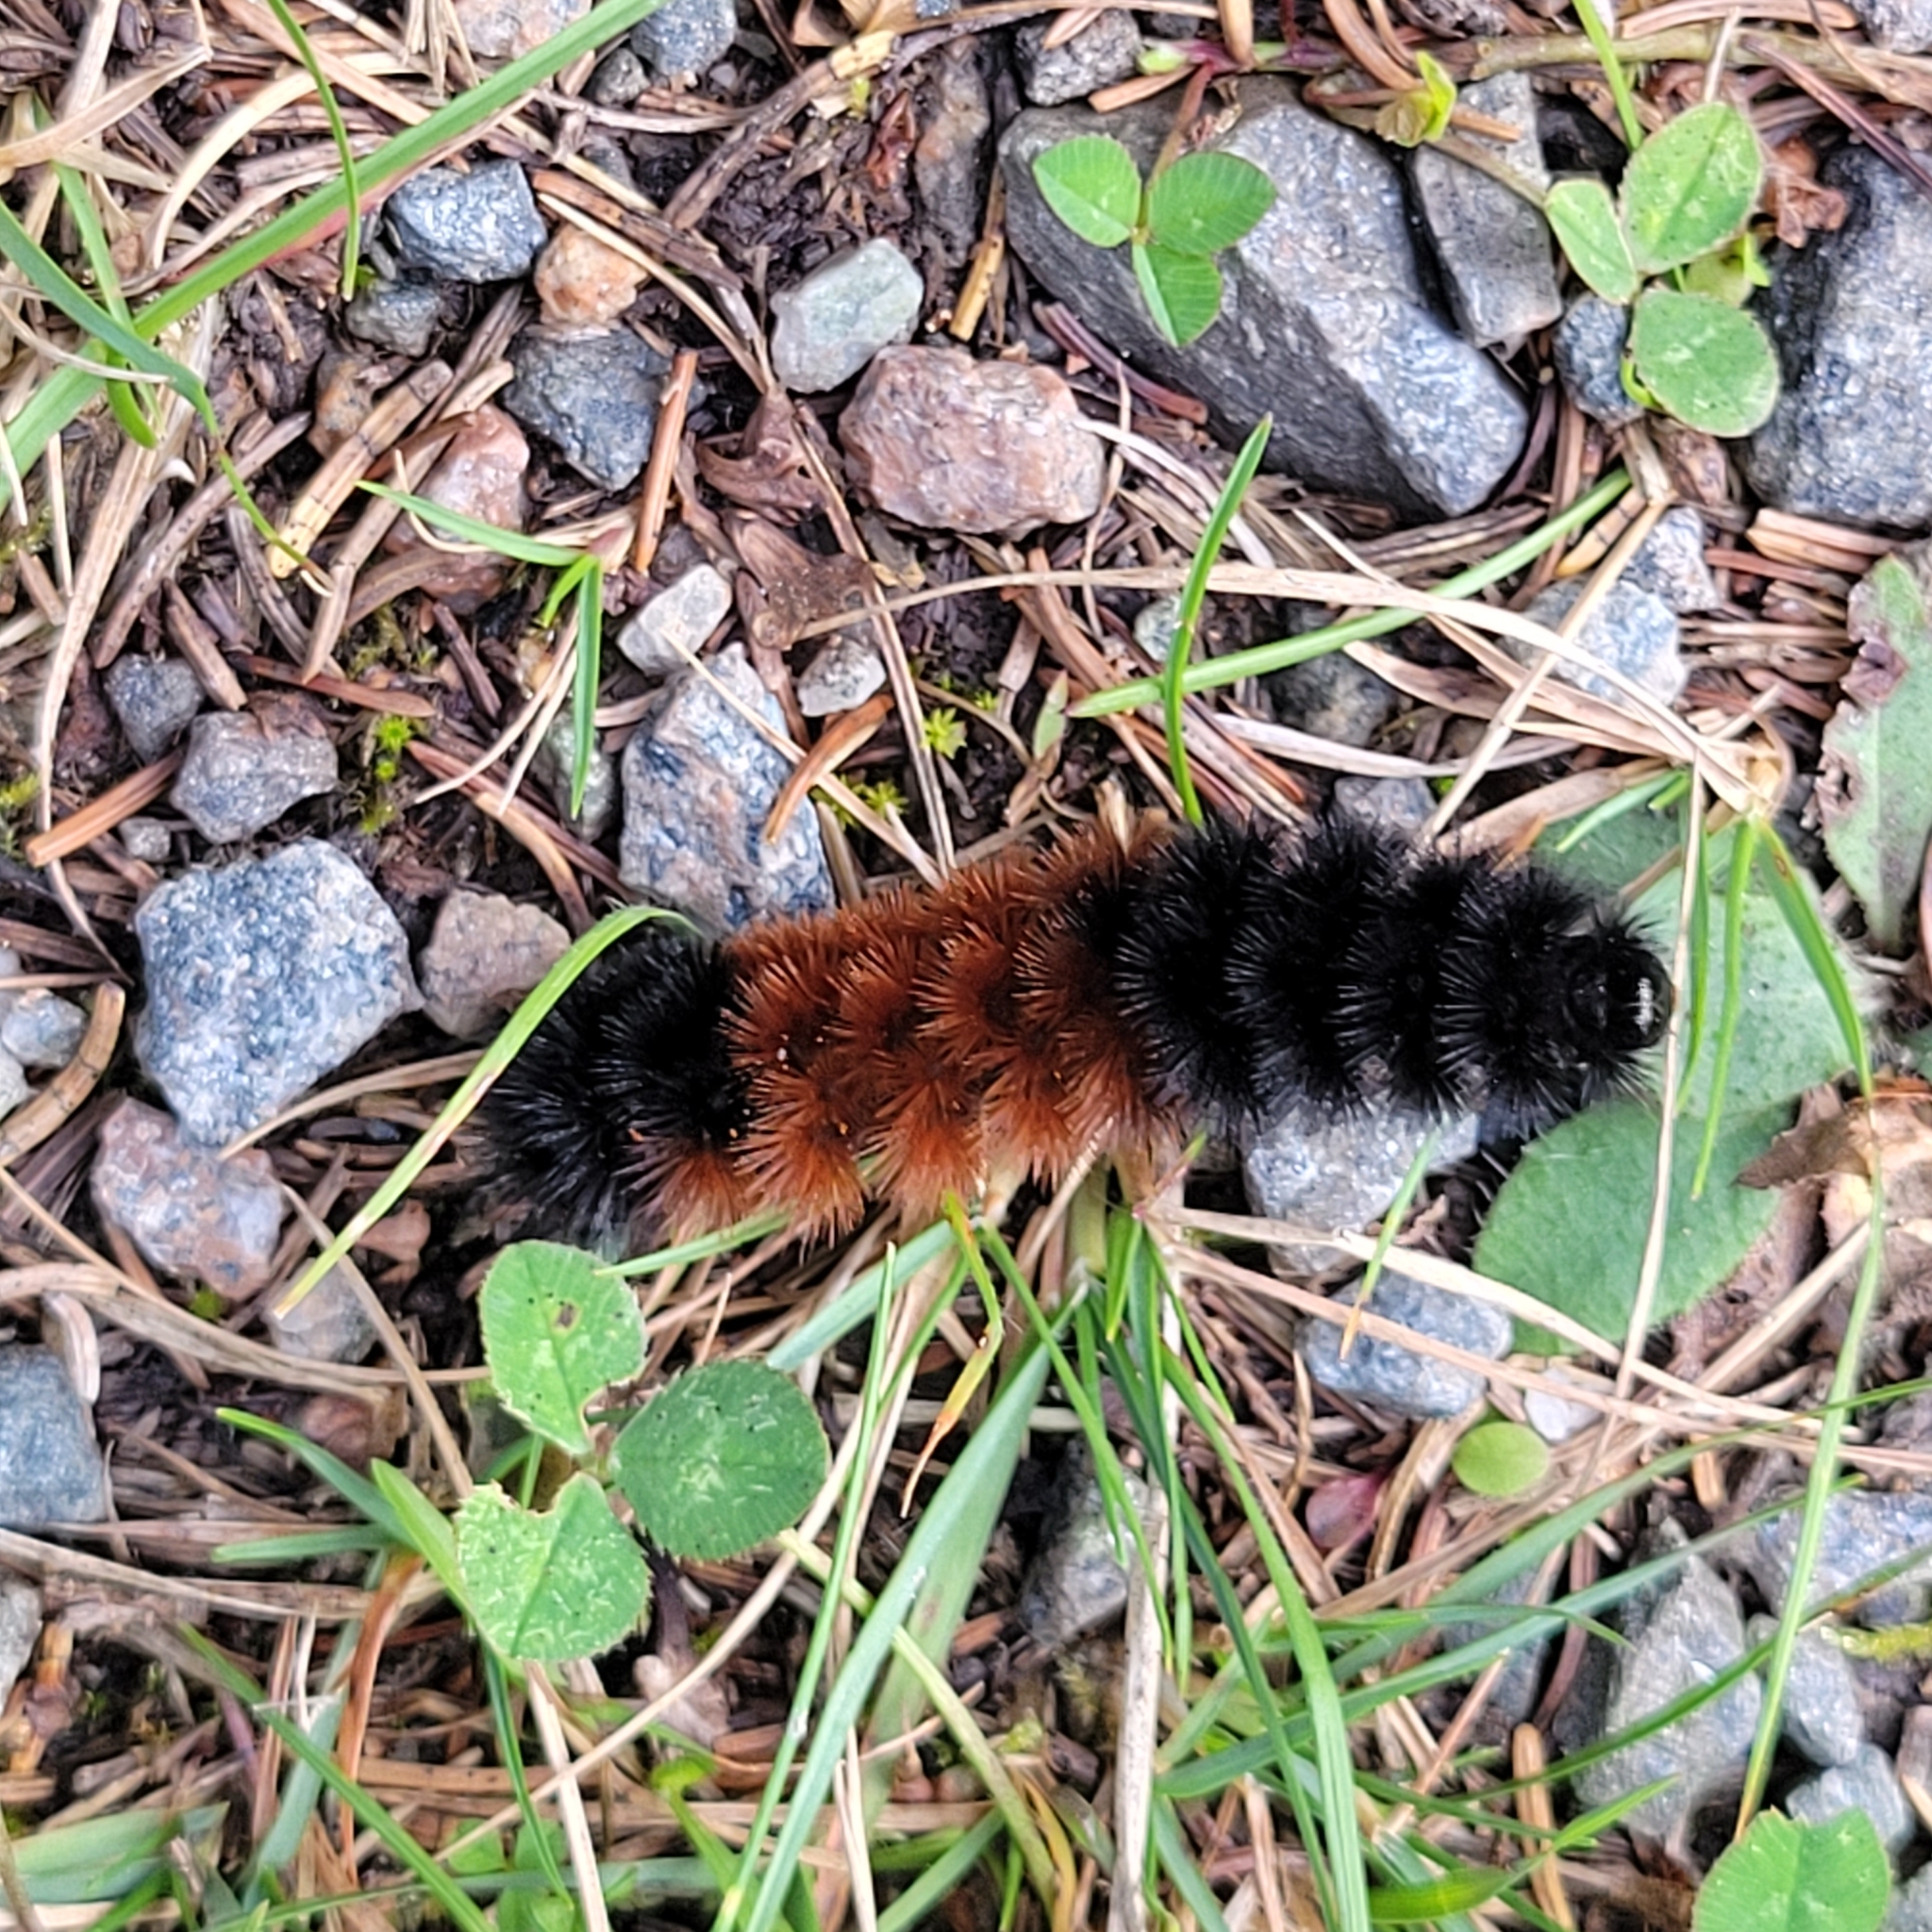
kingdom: Animalia
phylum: Arthropoda
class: Insecta
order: Lepidoptera
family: Erebidae
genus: Pyrrharctia
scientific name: Pyrrharctia isabella
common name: Isabella tiger moth
